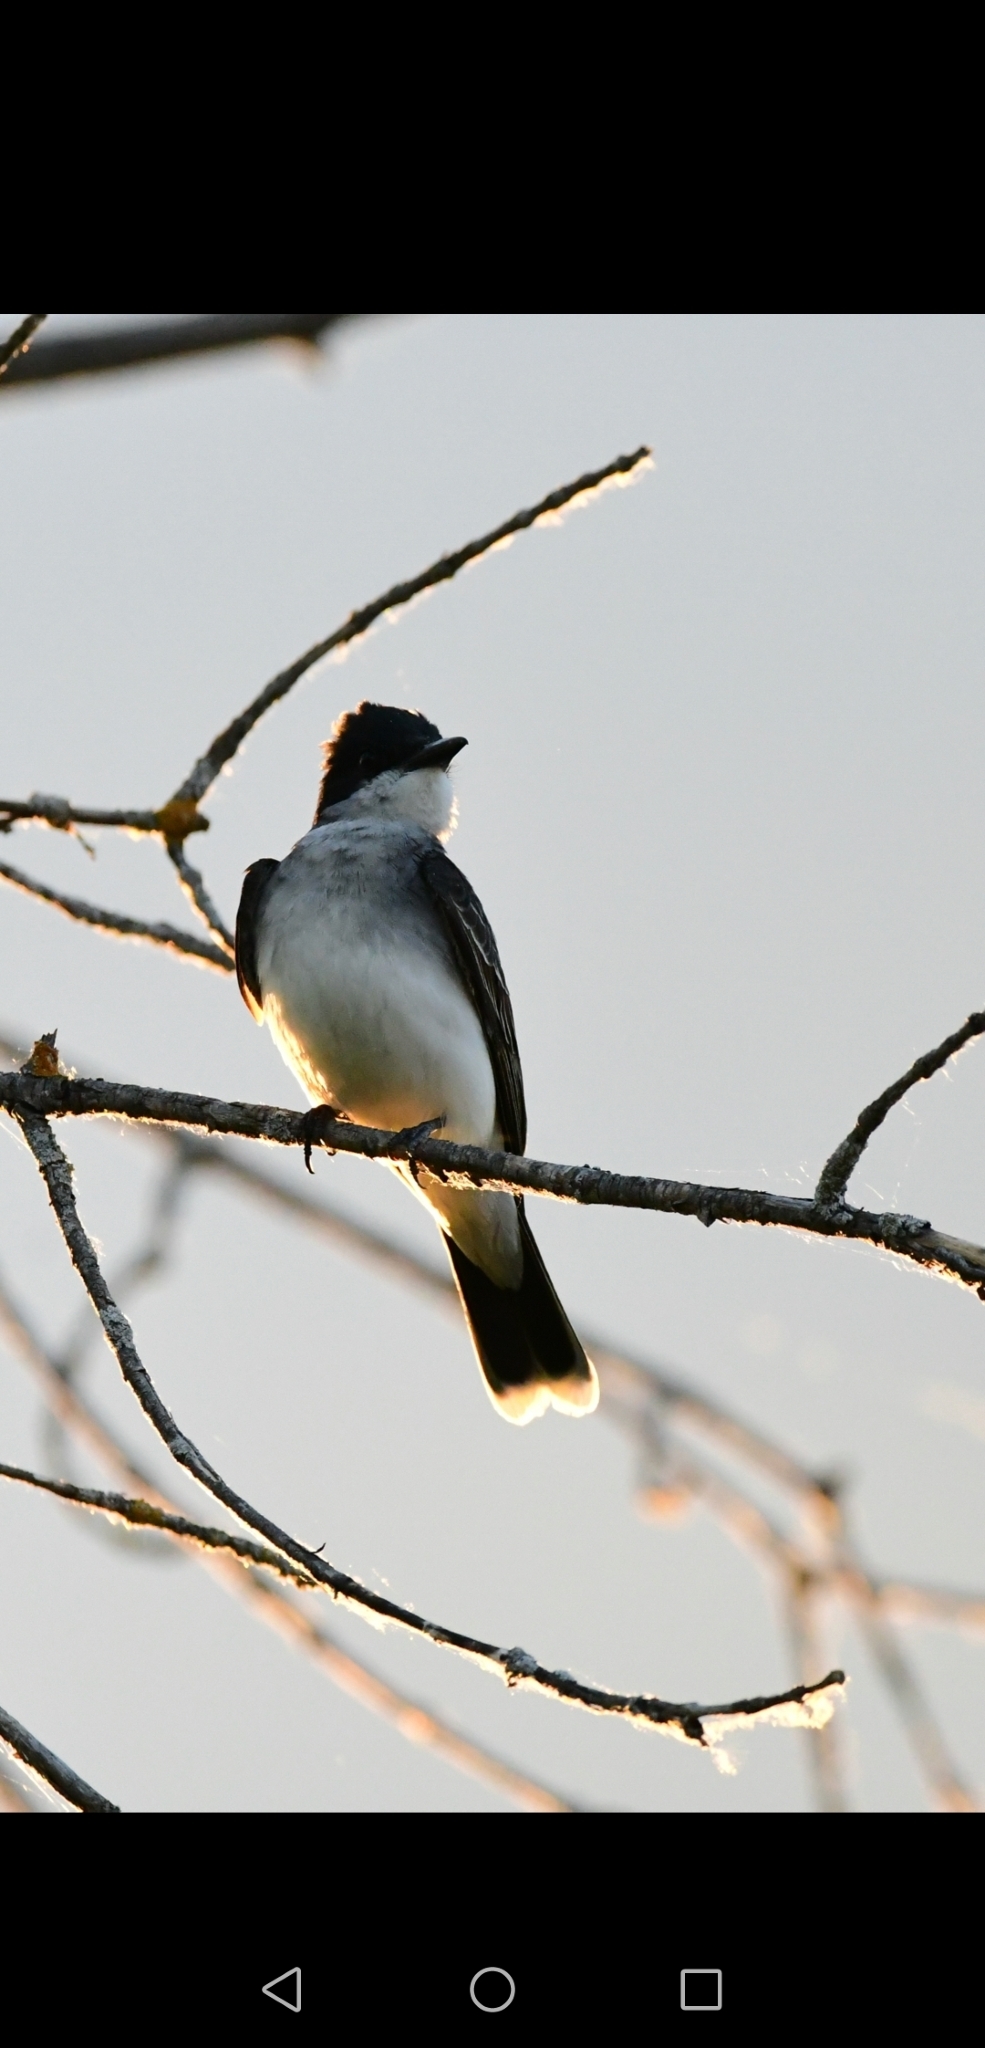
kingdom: Animalia
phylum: Chordata
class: Aves
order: Passeriformes
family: Tyrannidae
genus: Tyrannus
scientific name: Tyrannus tyrannus
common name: Eastern kingbird
